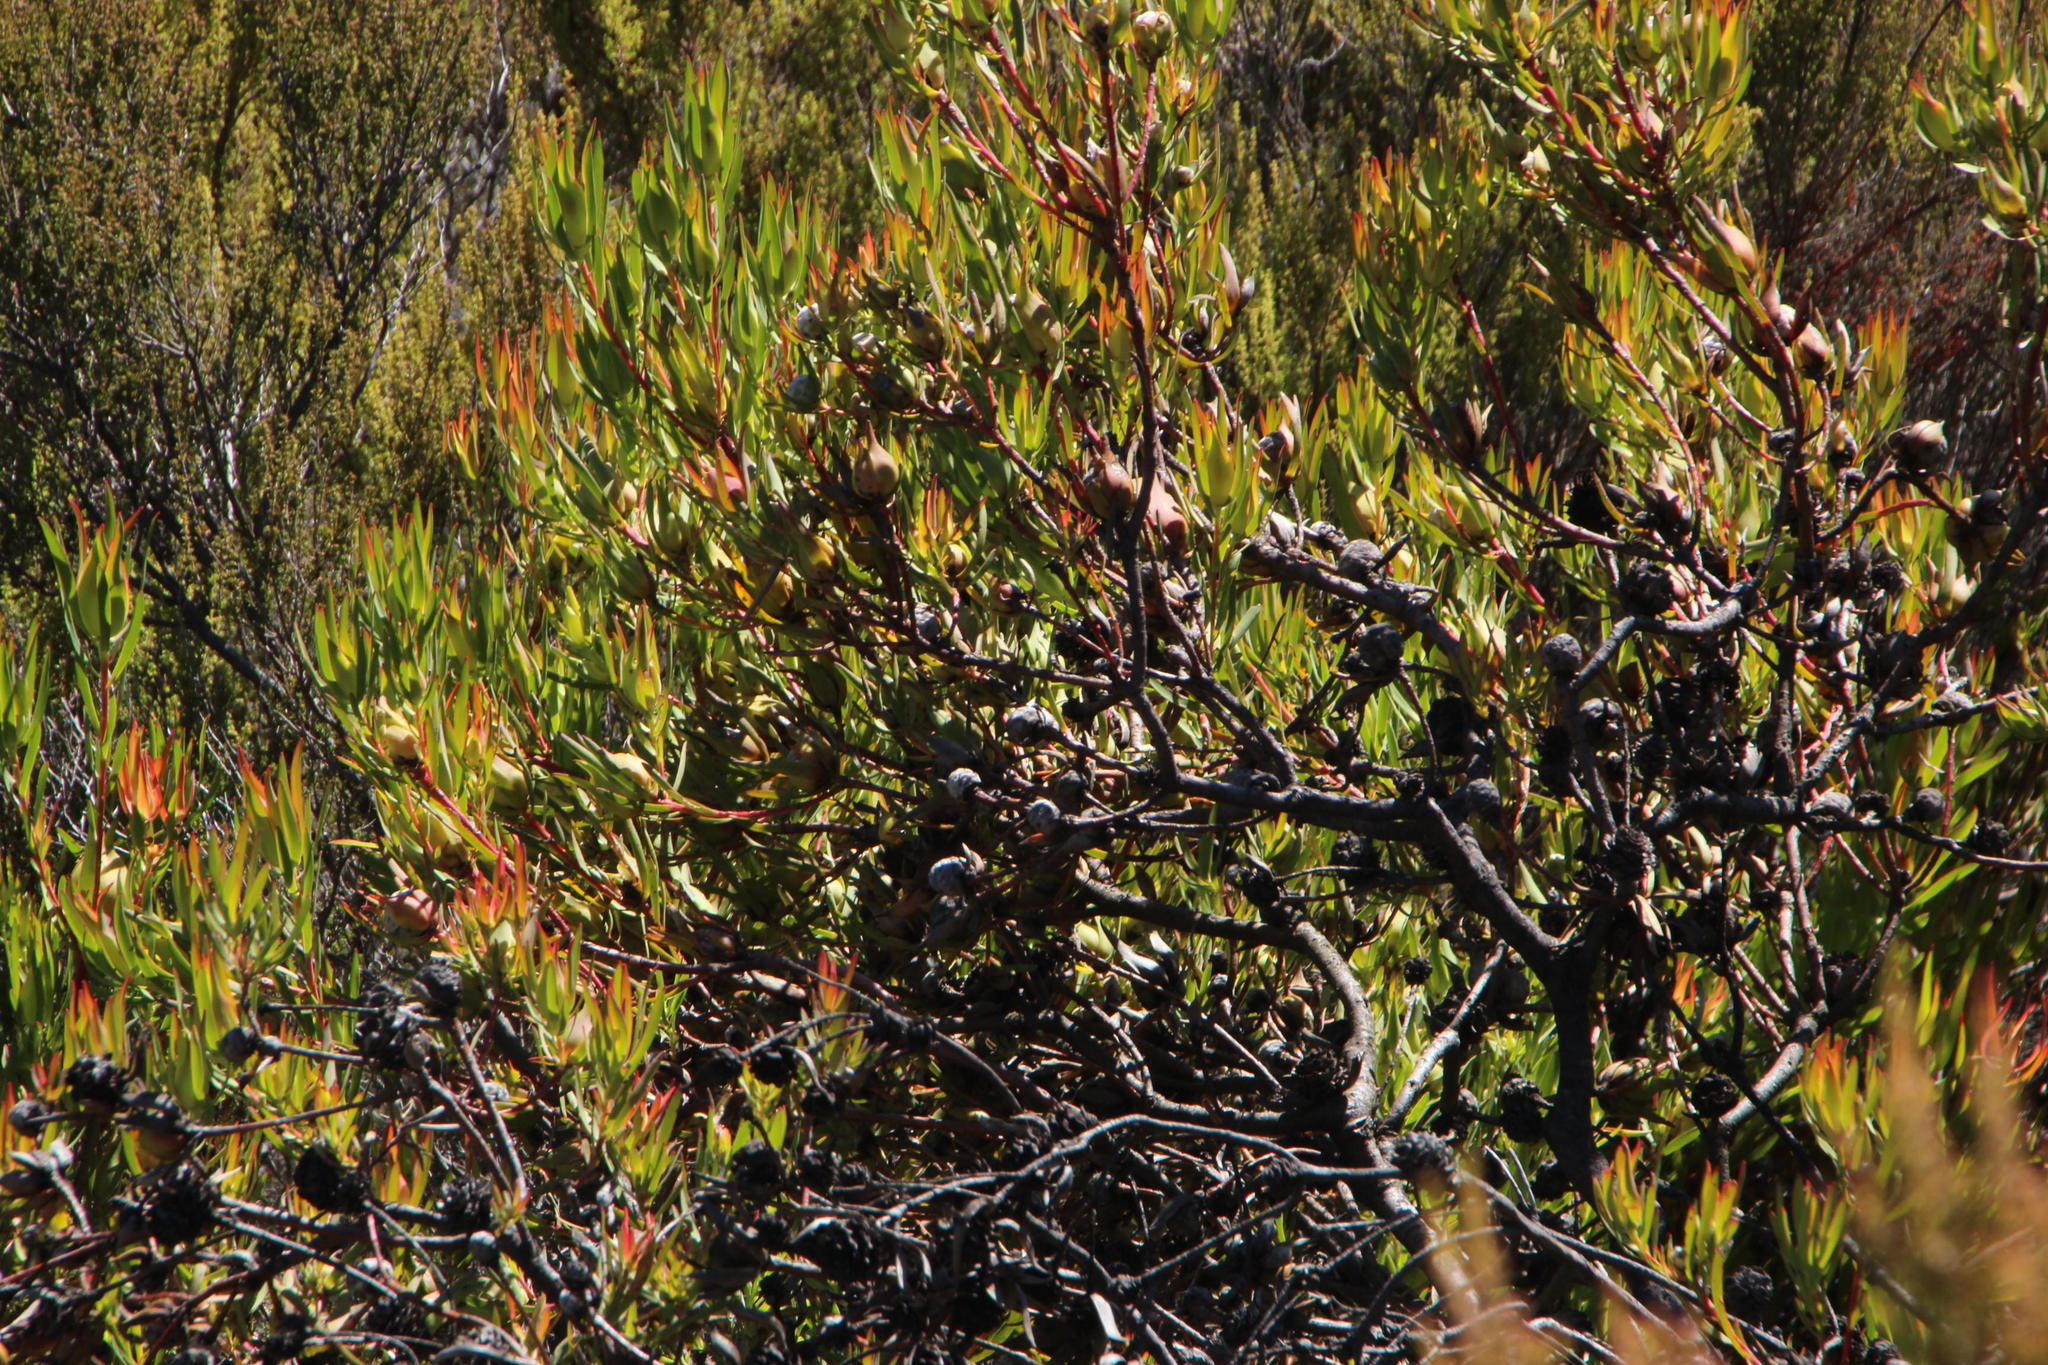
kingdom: Plantae
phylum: Tracheophyta
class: Magnoliopsida
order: Proteales
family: Proteaceae
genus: Leucadendron
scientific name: Leucadendron salignum
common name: Common sunshine conebush
